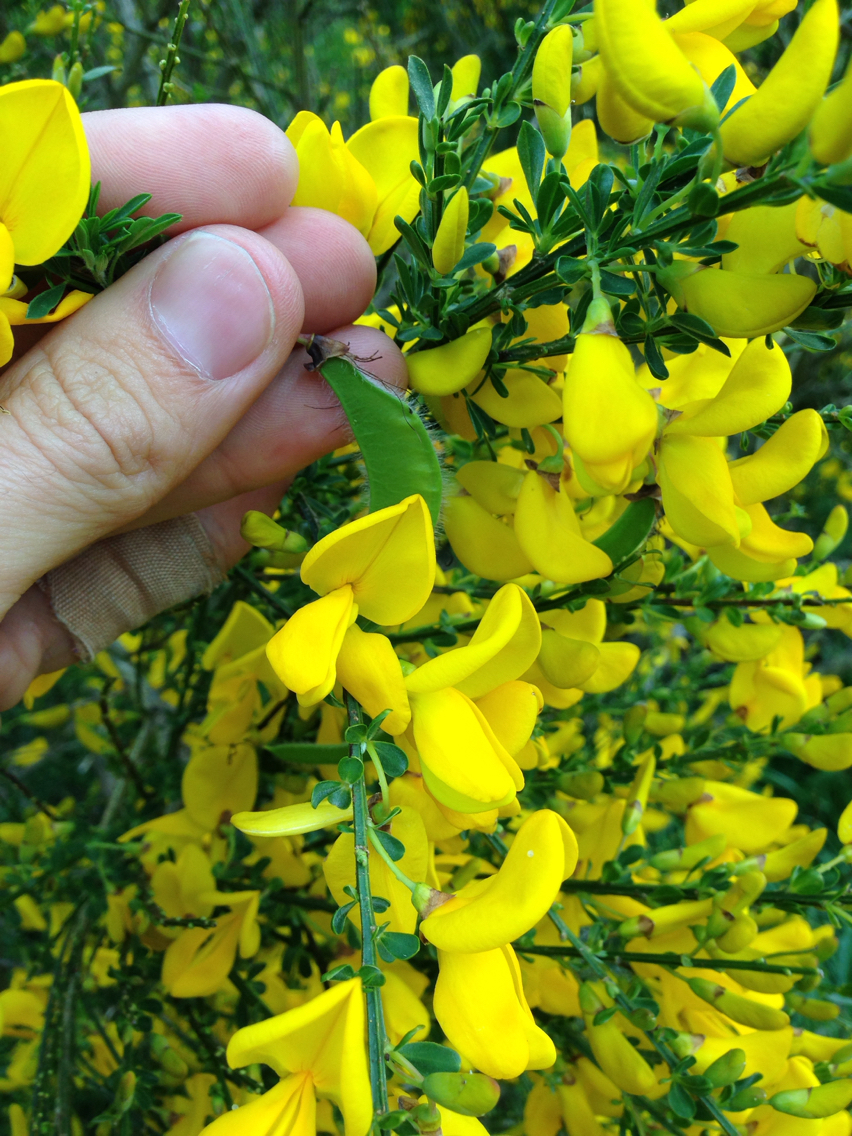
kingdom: Plantae
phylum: Tracheophyta
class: Magnoliopsida
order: Fabales
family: Fabaceae
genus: Cytisus
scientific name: Cytisus scoparius
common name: Scotch broom
